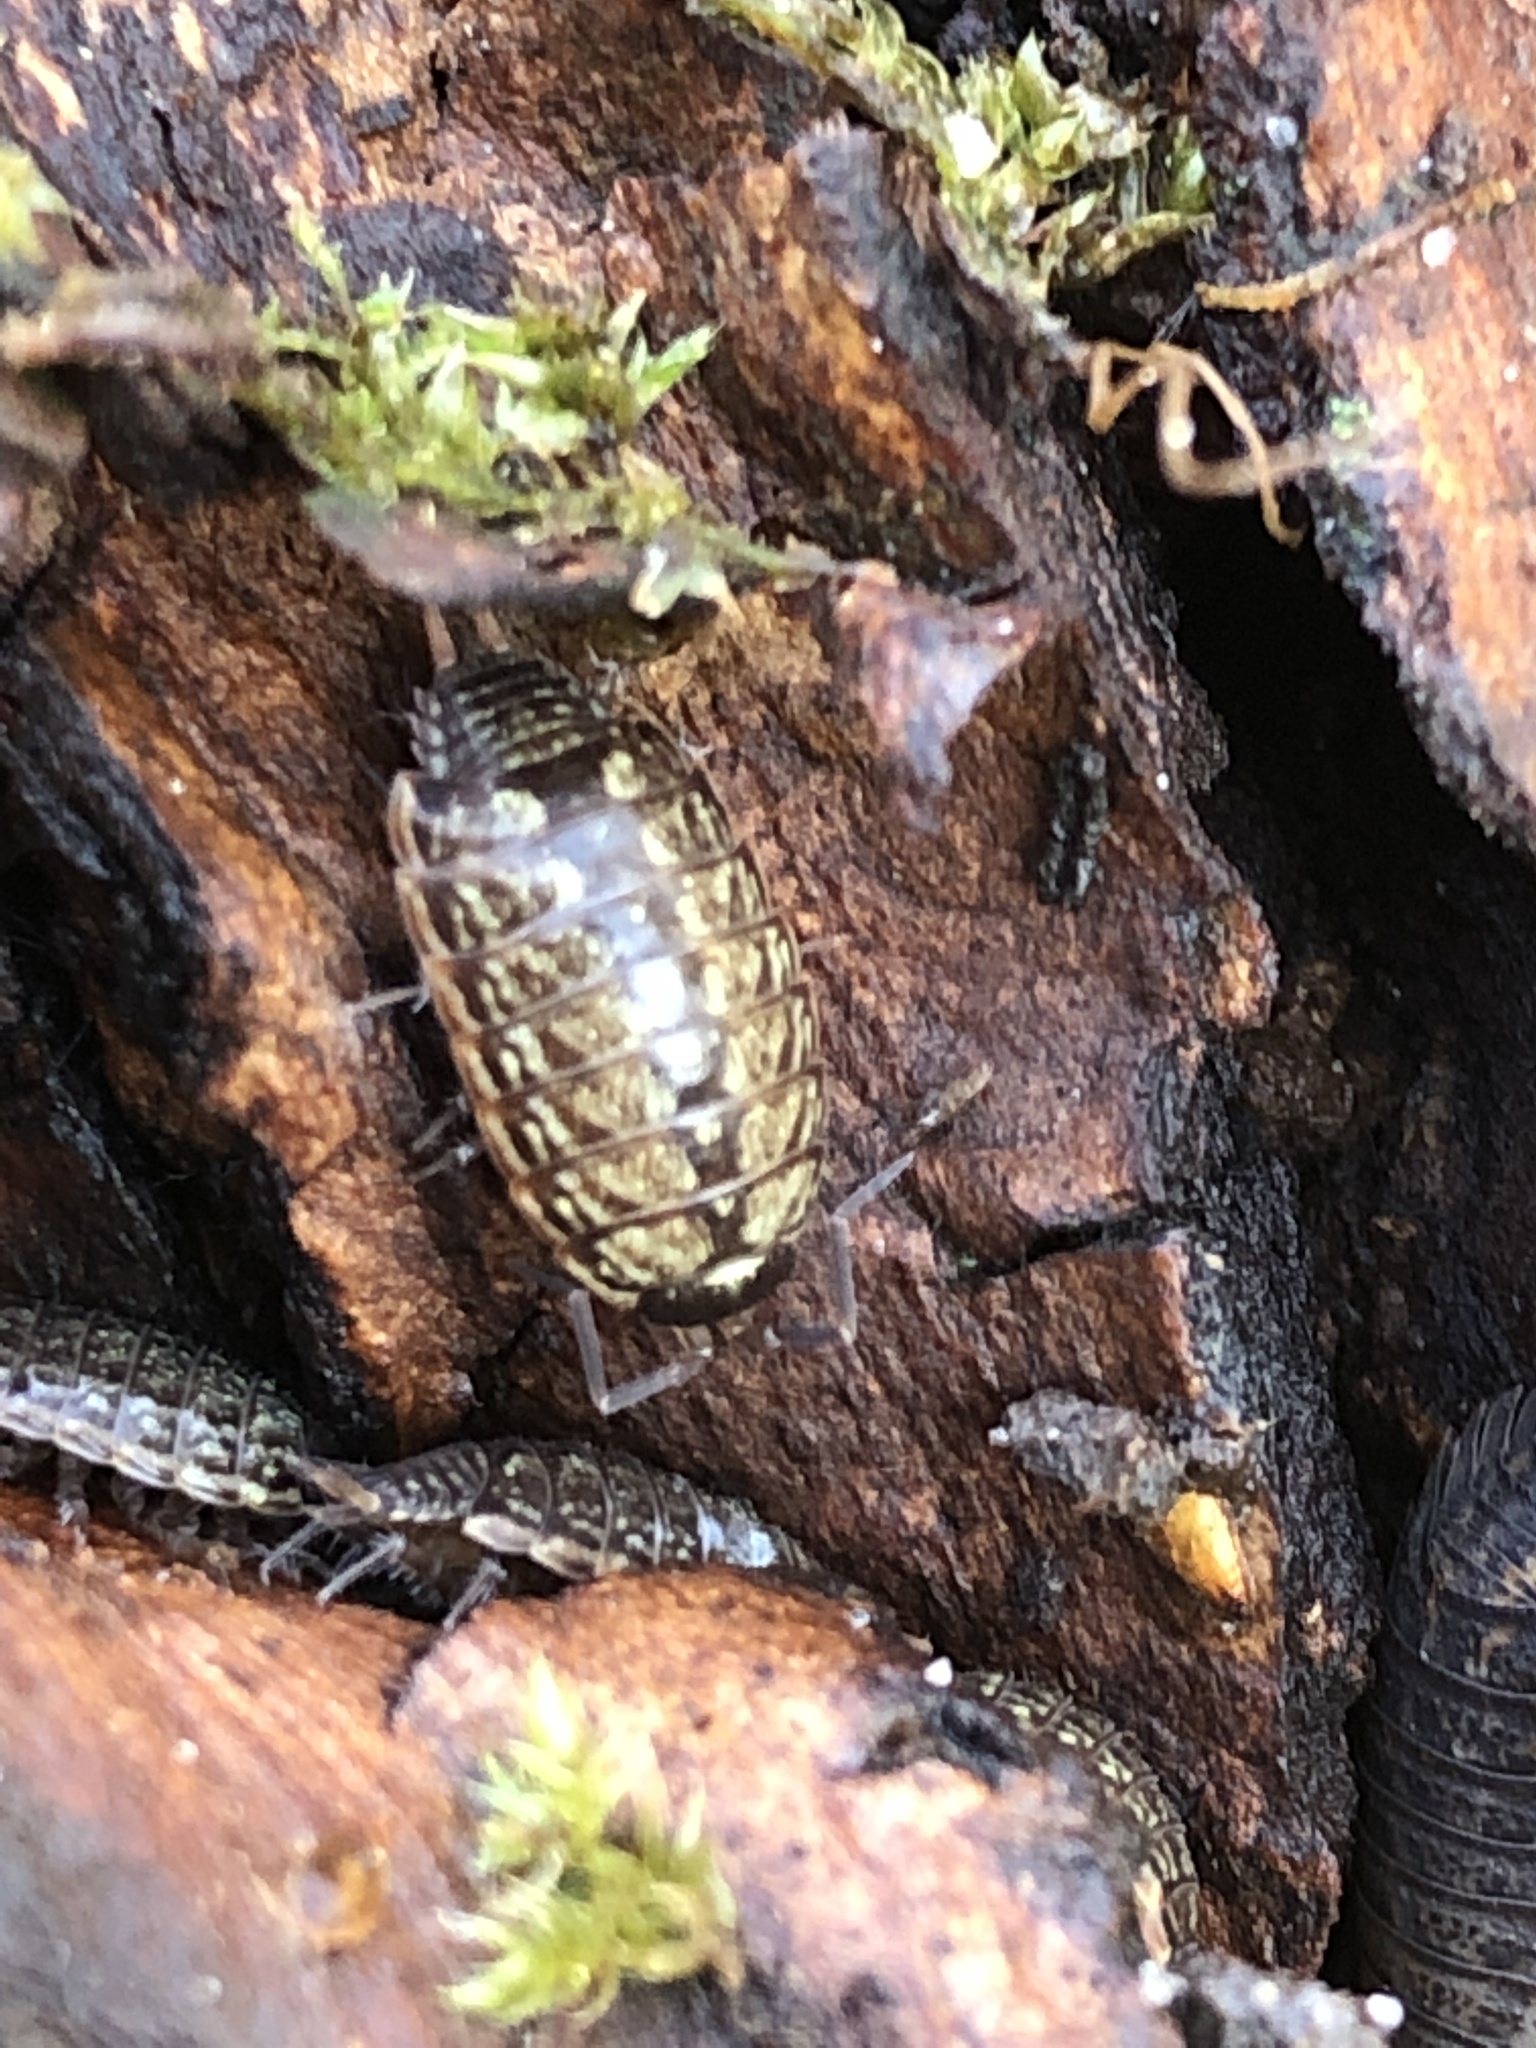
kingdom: Animalia
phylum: Arthropoda
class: Malacostraca
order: Isopoda
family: Philosciidae
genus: Philoscia
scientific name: Philoscia muscorum
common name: Common striped woodlouse
